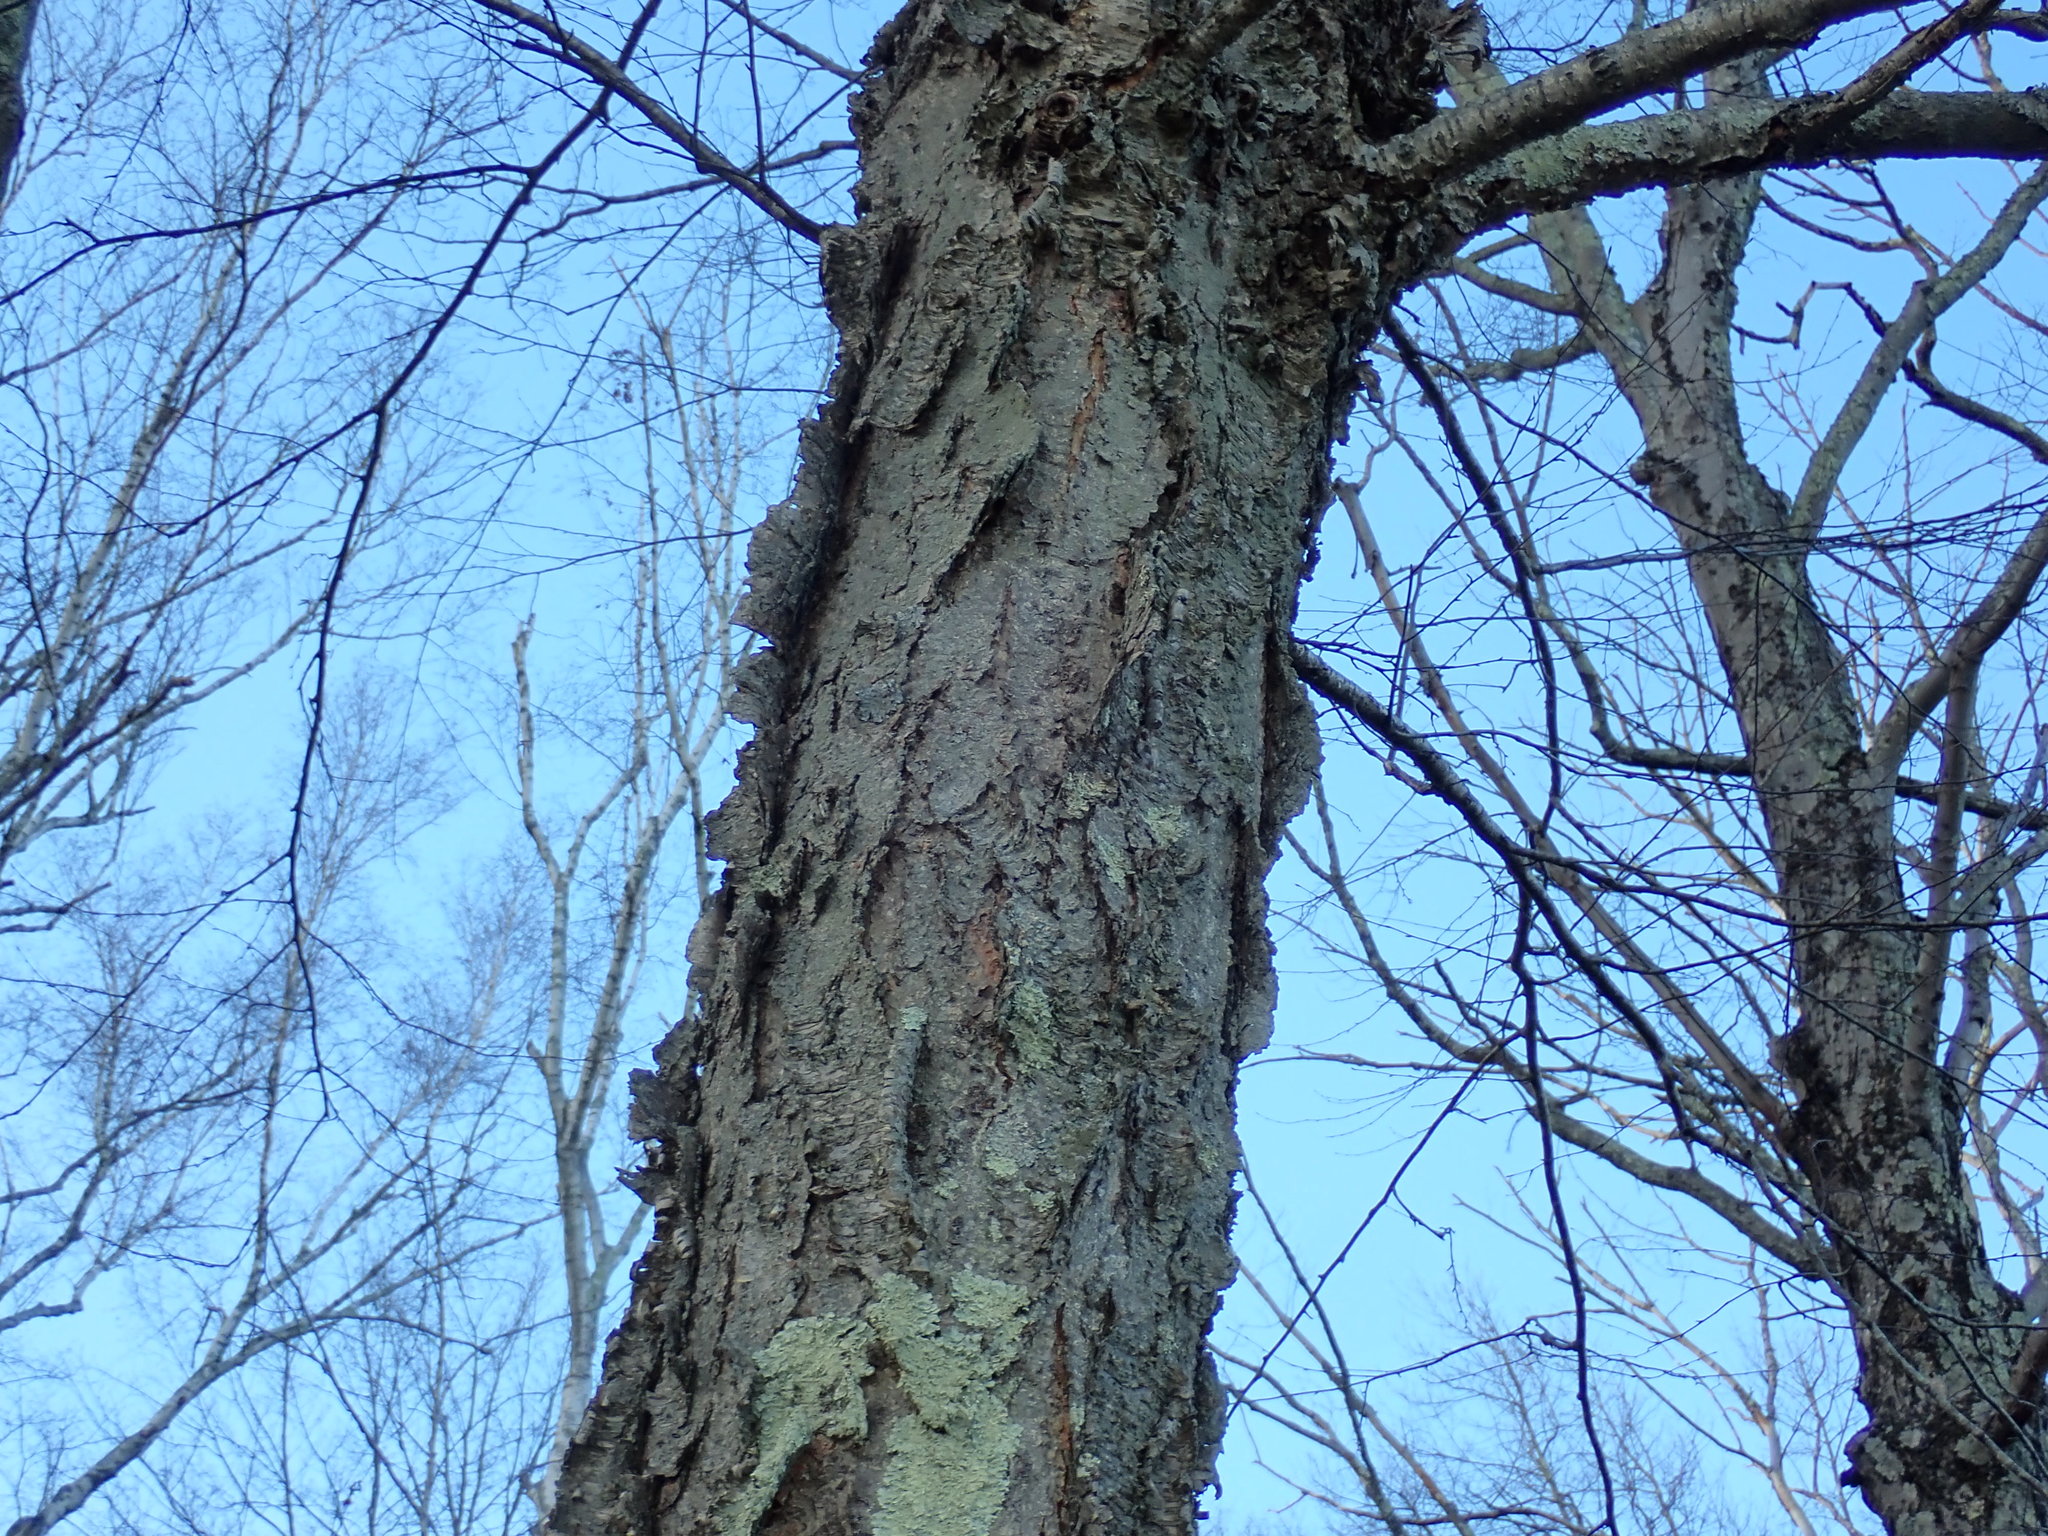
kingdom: Plantae
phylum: Tracheophyta
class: Magnoliopsida
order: Fagales
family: Betulaceae
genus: Betula
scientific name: Betula alleghaniensis
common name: Yellow birch
